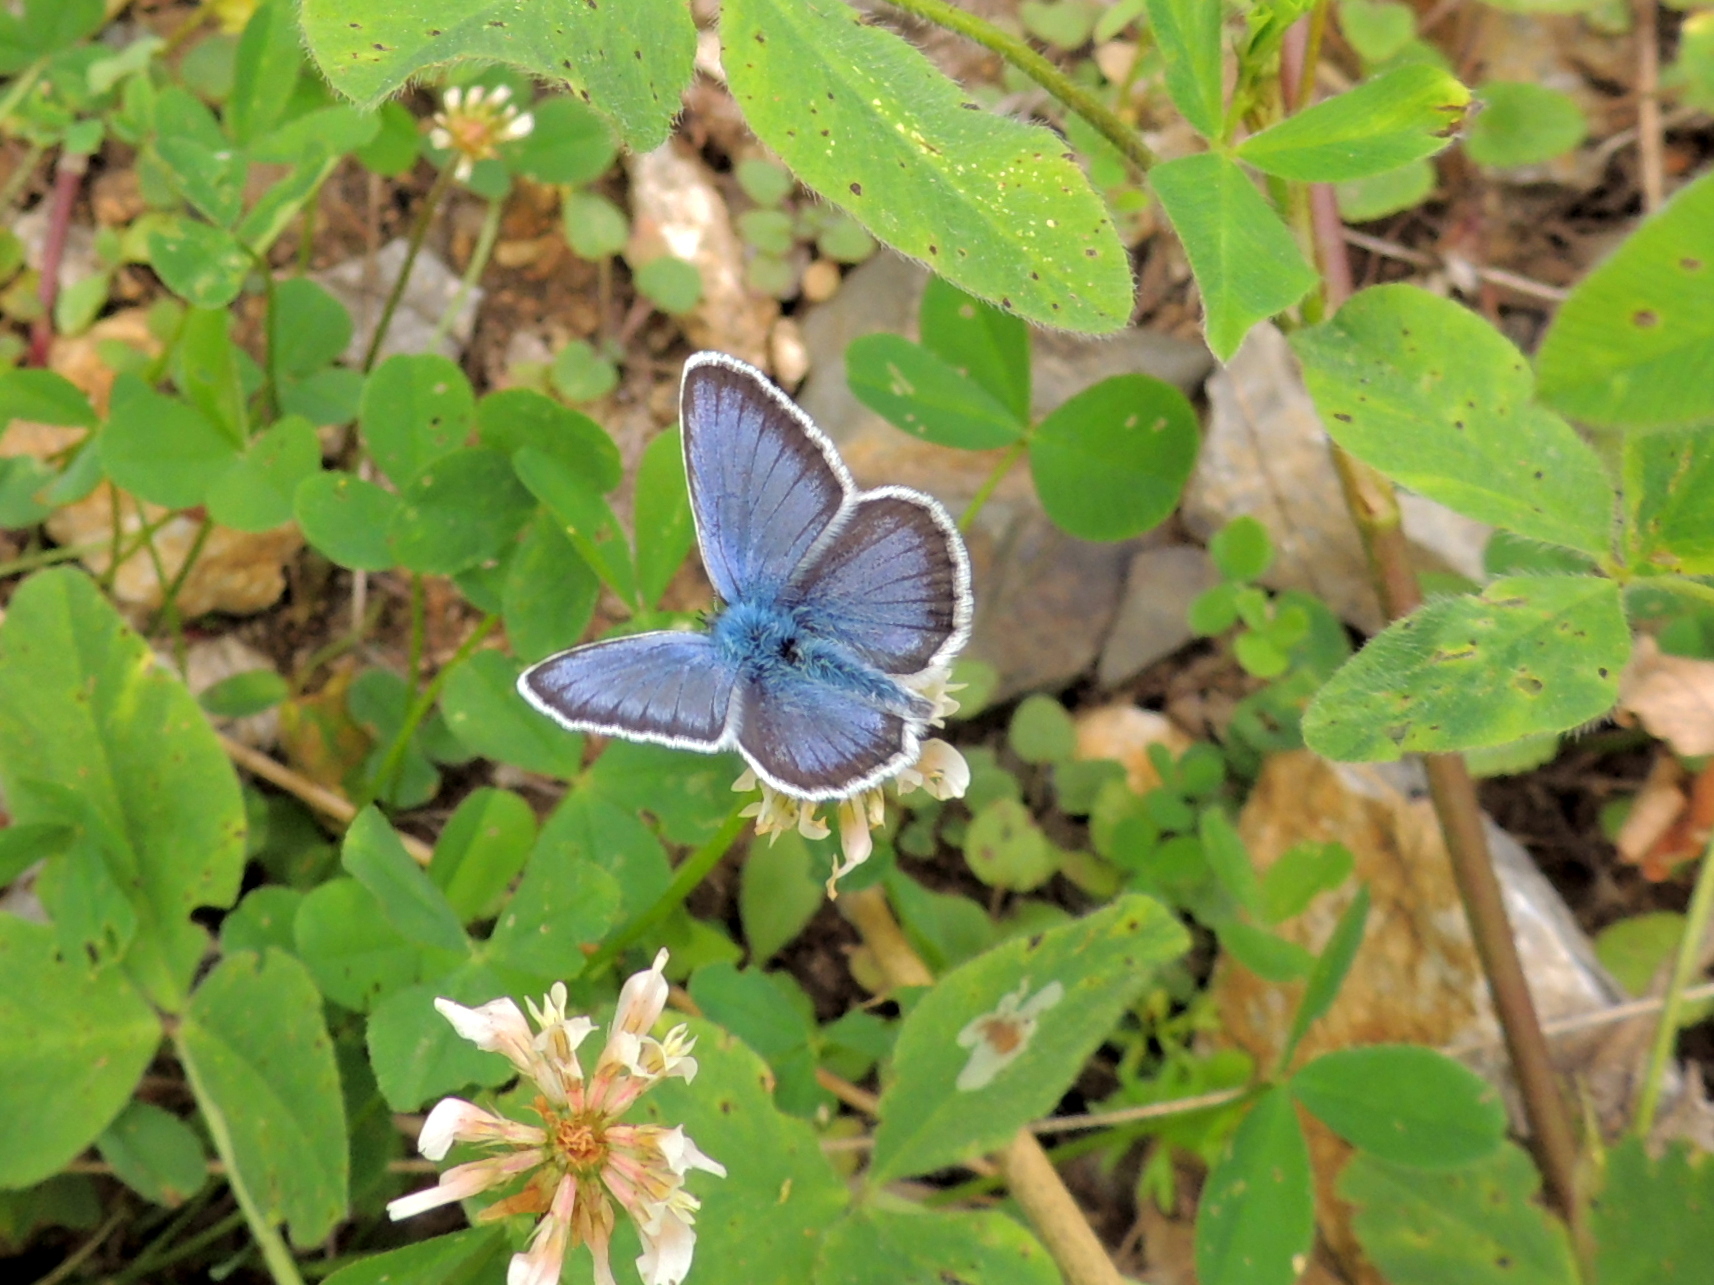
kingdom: Animalia
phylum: Arthropoda
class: Insecta
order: Lepidoptera
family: Lycaenidae
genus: Plebejus
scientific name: Plebejus argus
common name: Silver-studded blue
